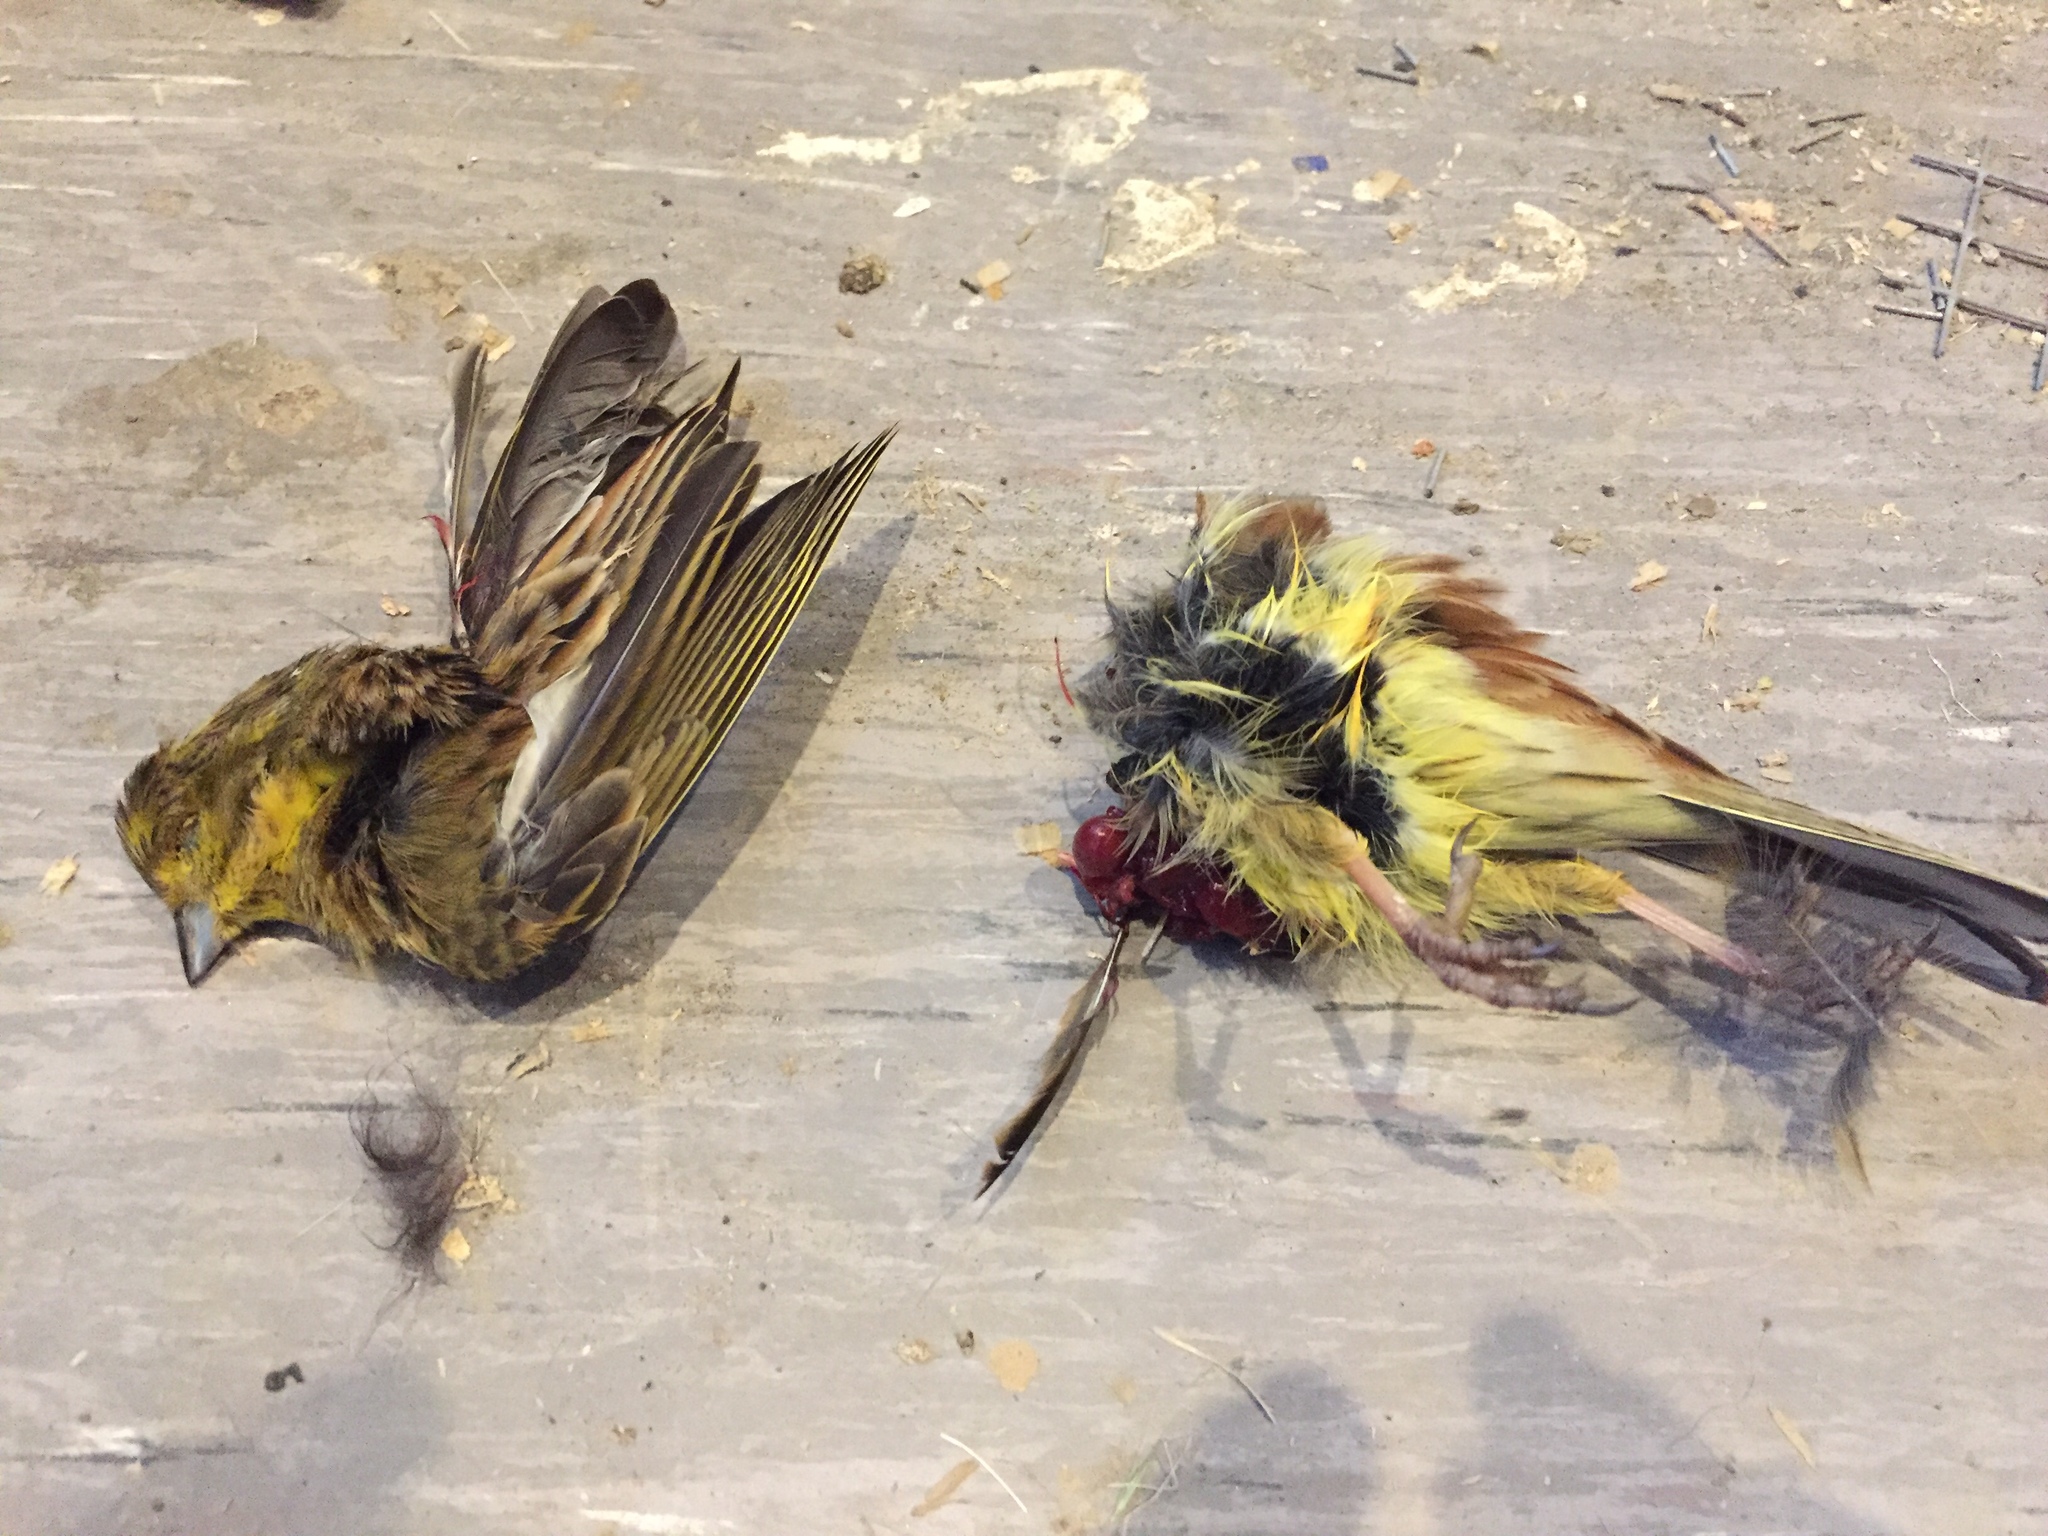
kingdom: Animalia
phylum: Chordata
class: Aves
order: Passeriformes
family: Emberizidae
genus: Emberiza
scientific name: Emberiza citrinella
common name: Yellowhammer
